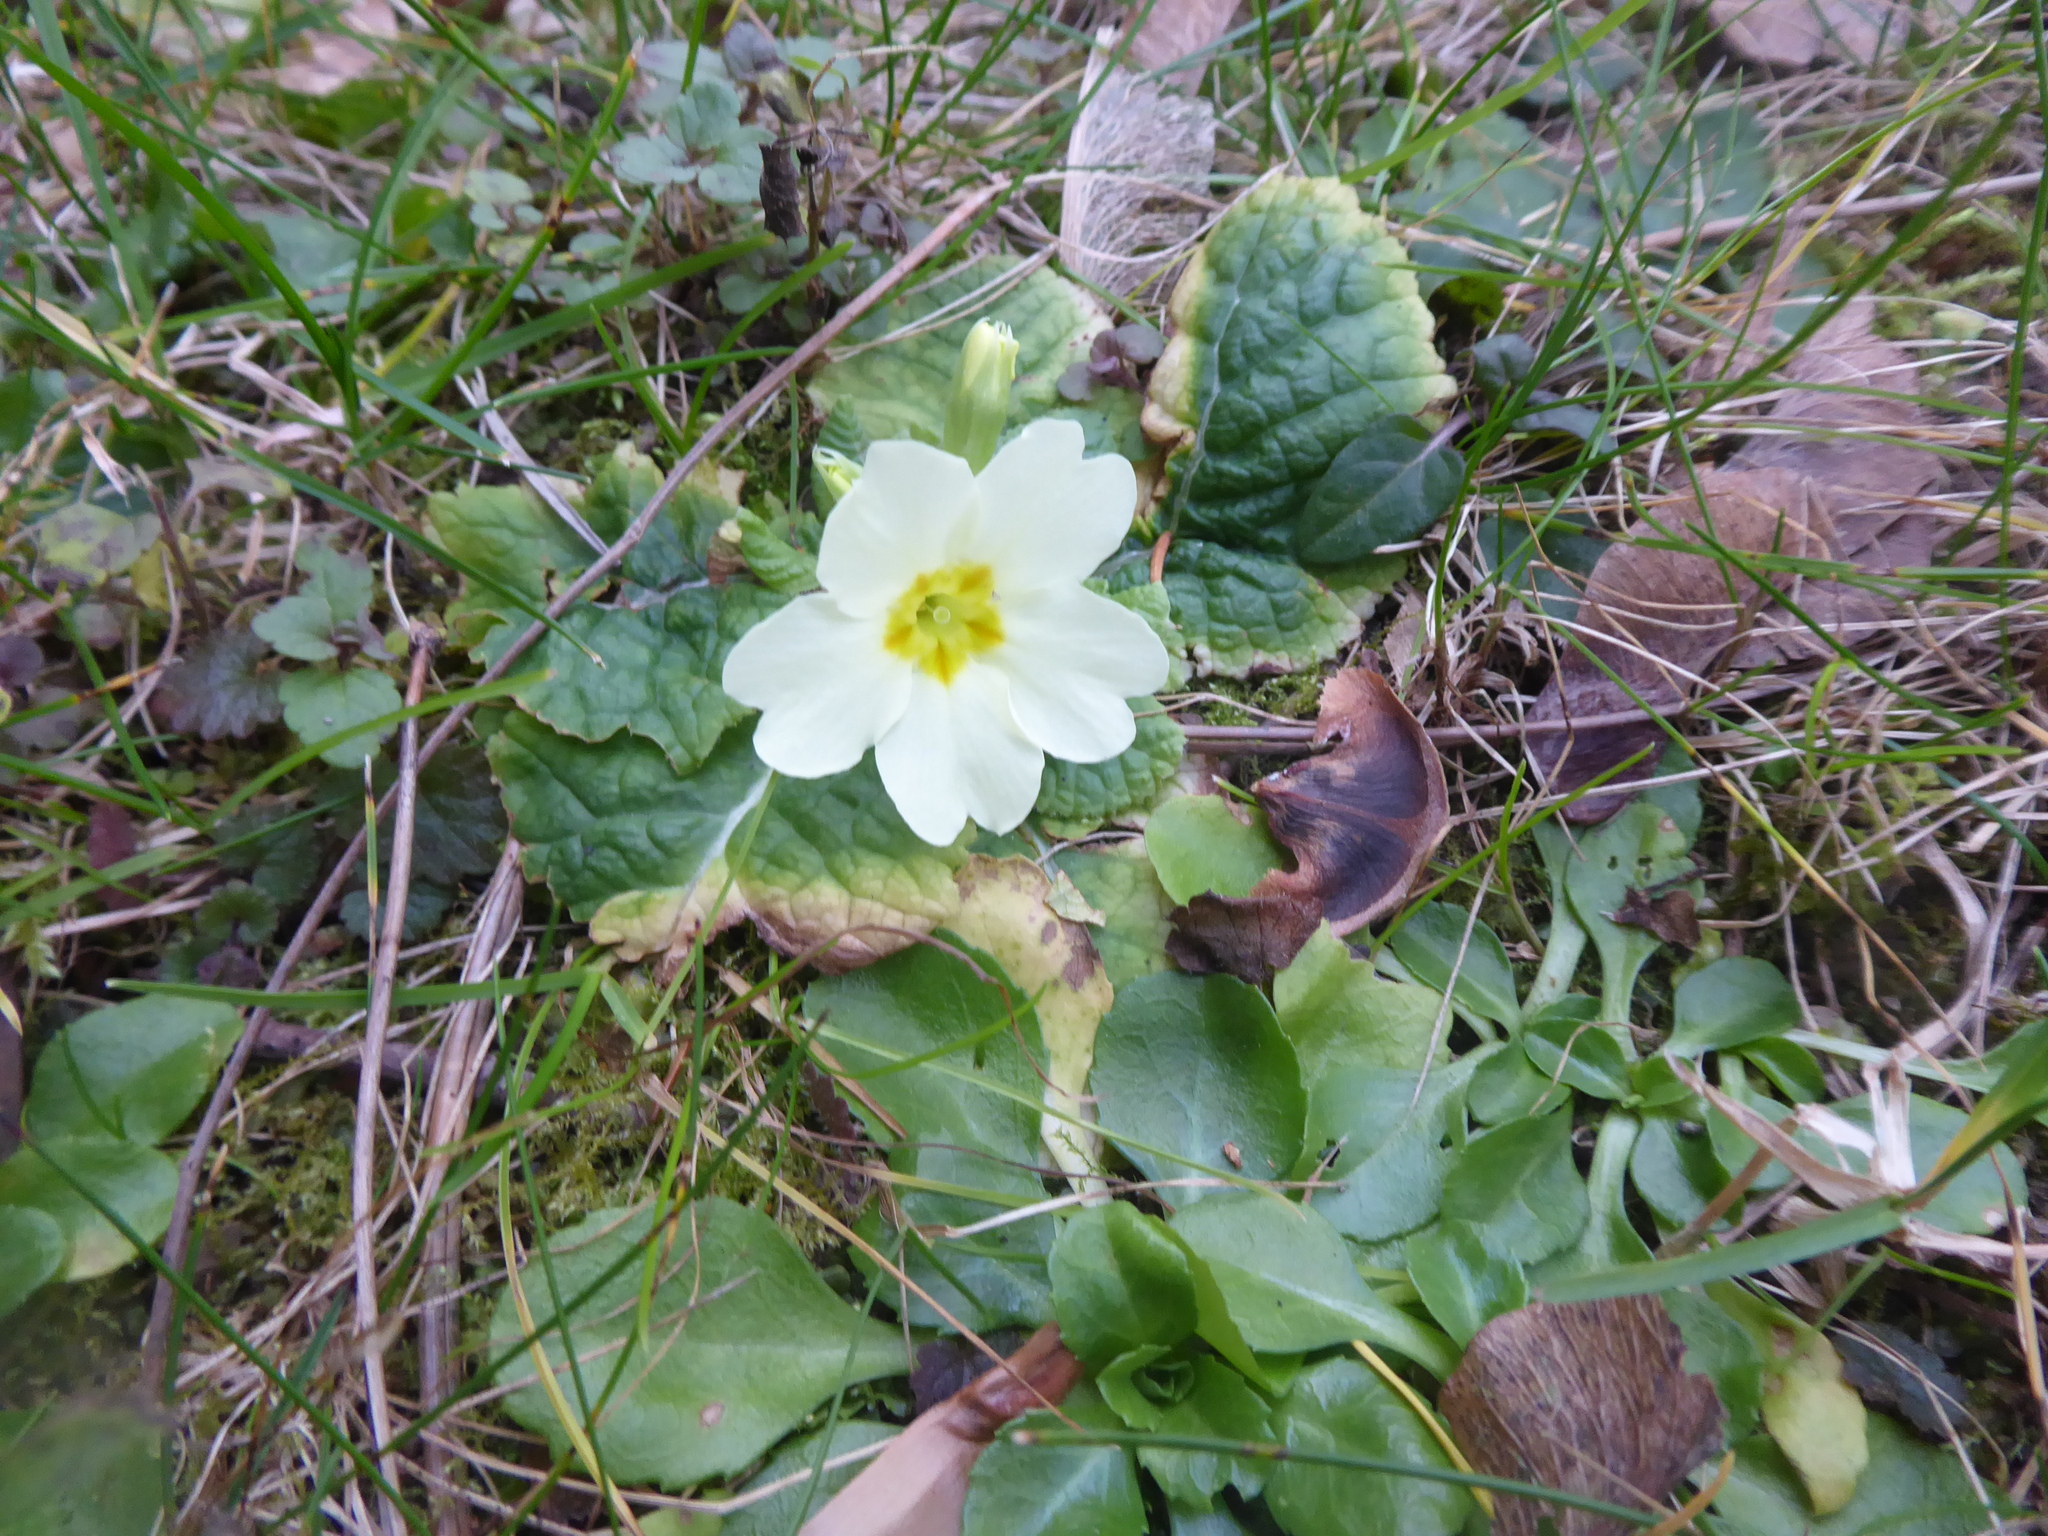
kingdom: Plantae
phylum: Tracheophyta
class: Magnoliopsida
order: Ericales
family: Primulaceae
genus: Primula
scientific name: Primula vulgaris
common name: Primrose
